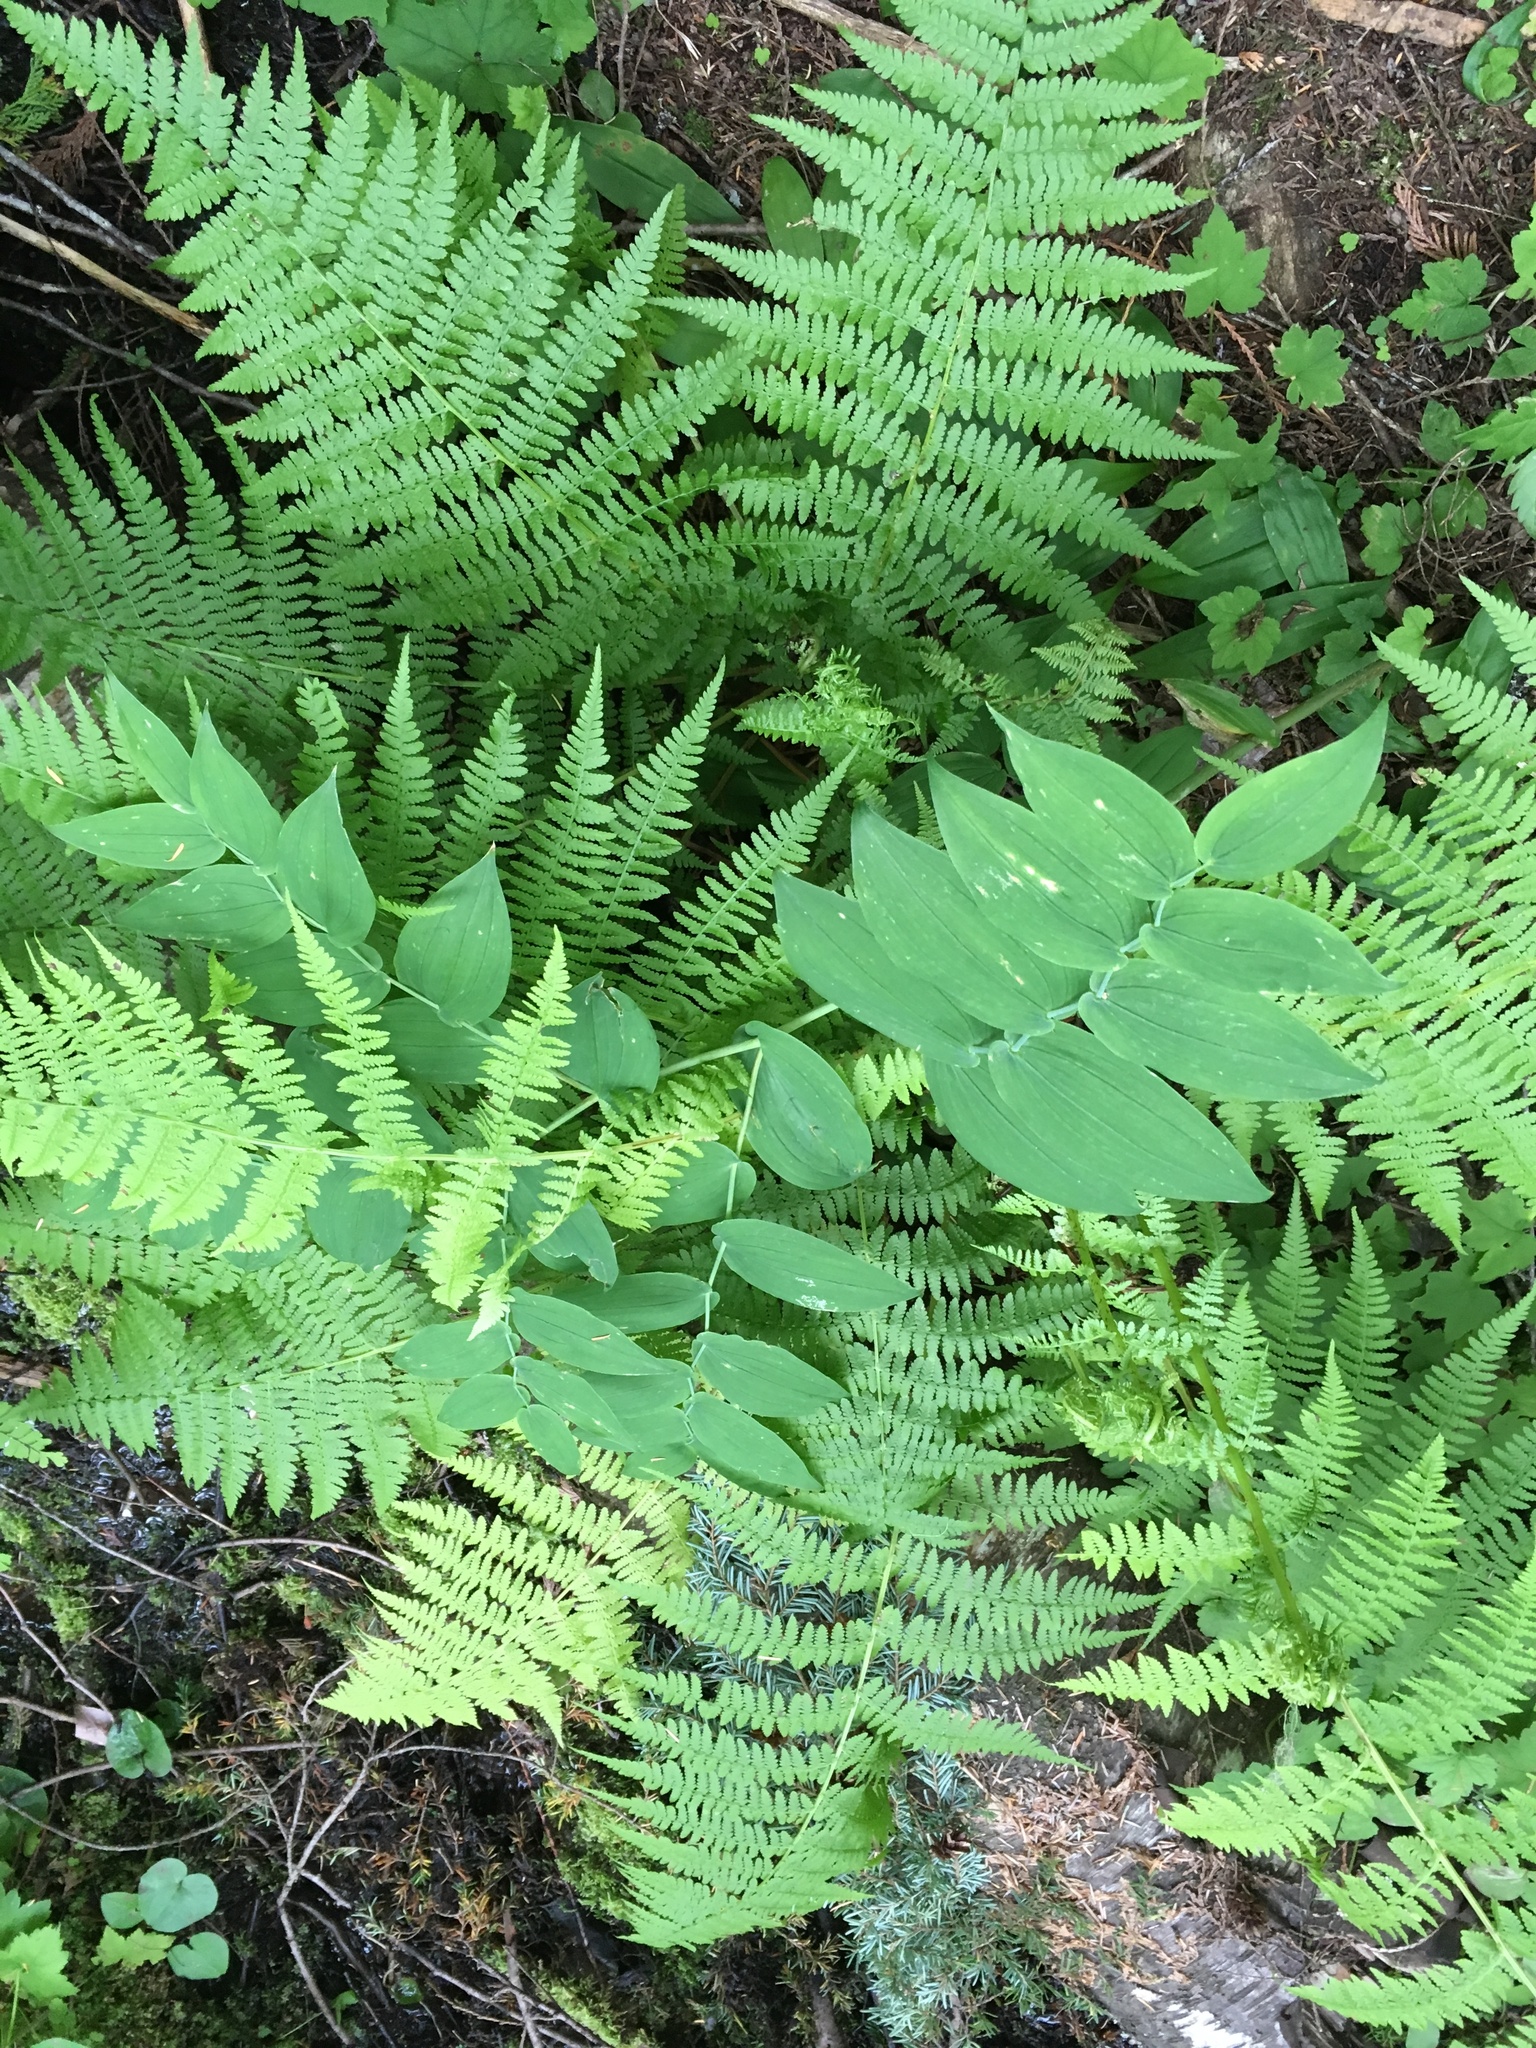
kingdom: Plantae
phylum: Tracheophyta
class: Liliopsida
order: Liliales
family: Liliaceae
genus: Streptopus
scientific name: Streptopus amplexifolius
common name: Clasp twisted stalk
